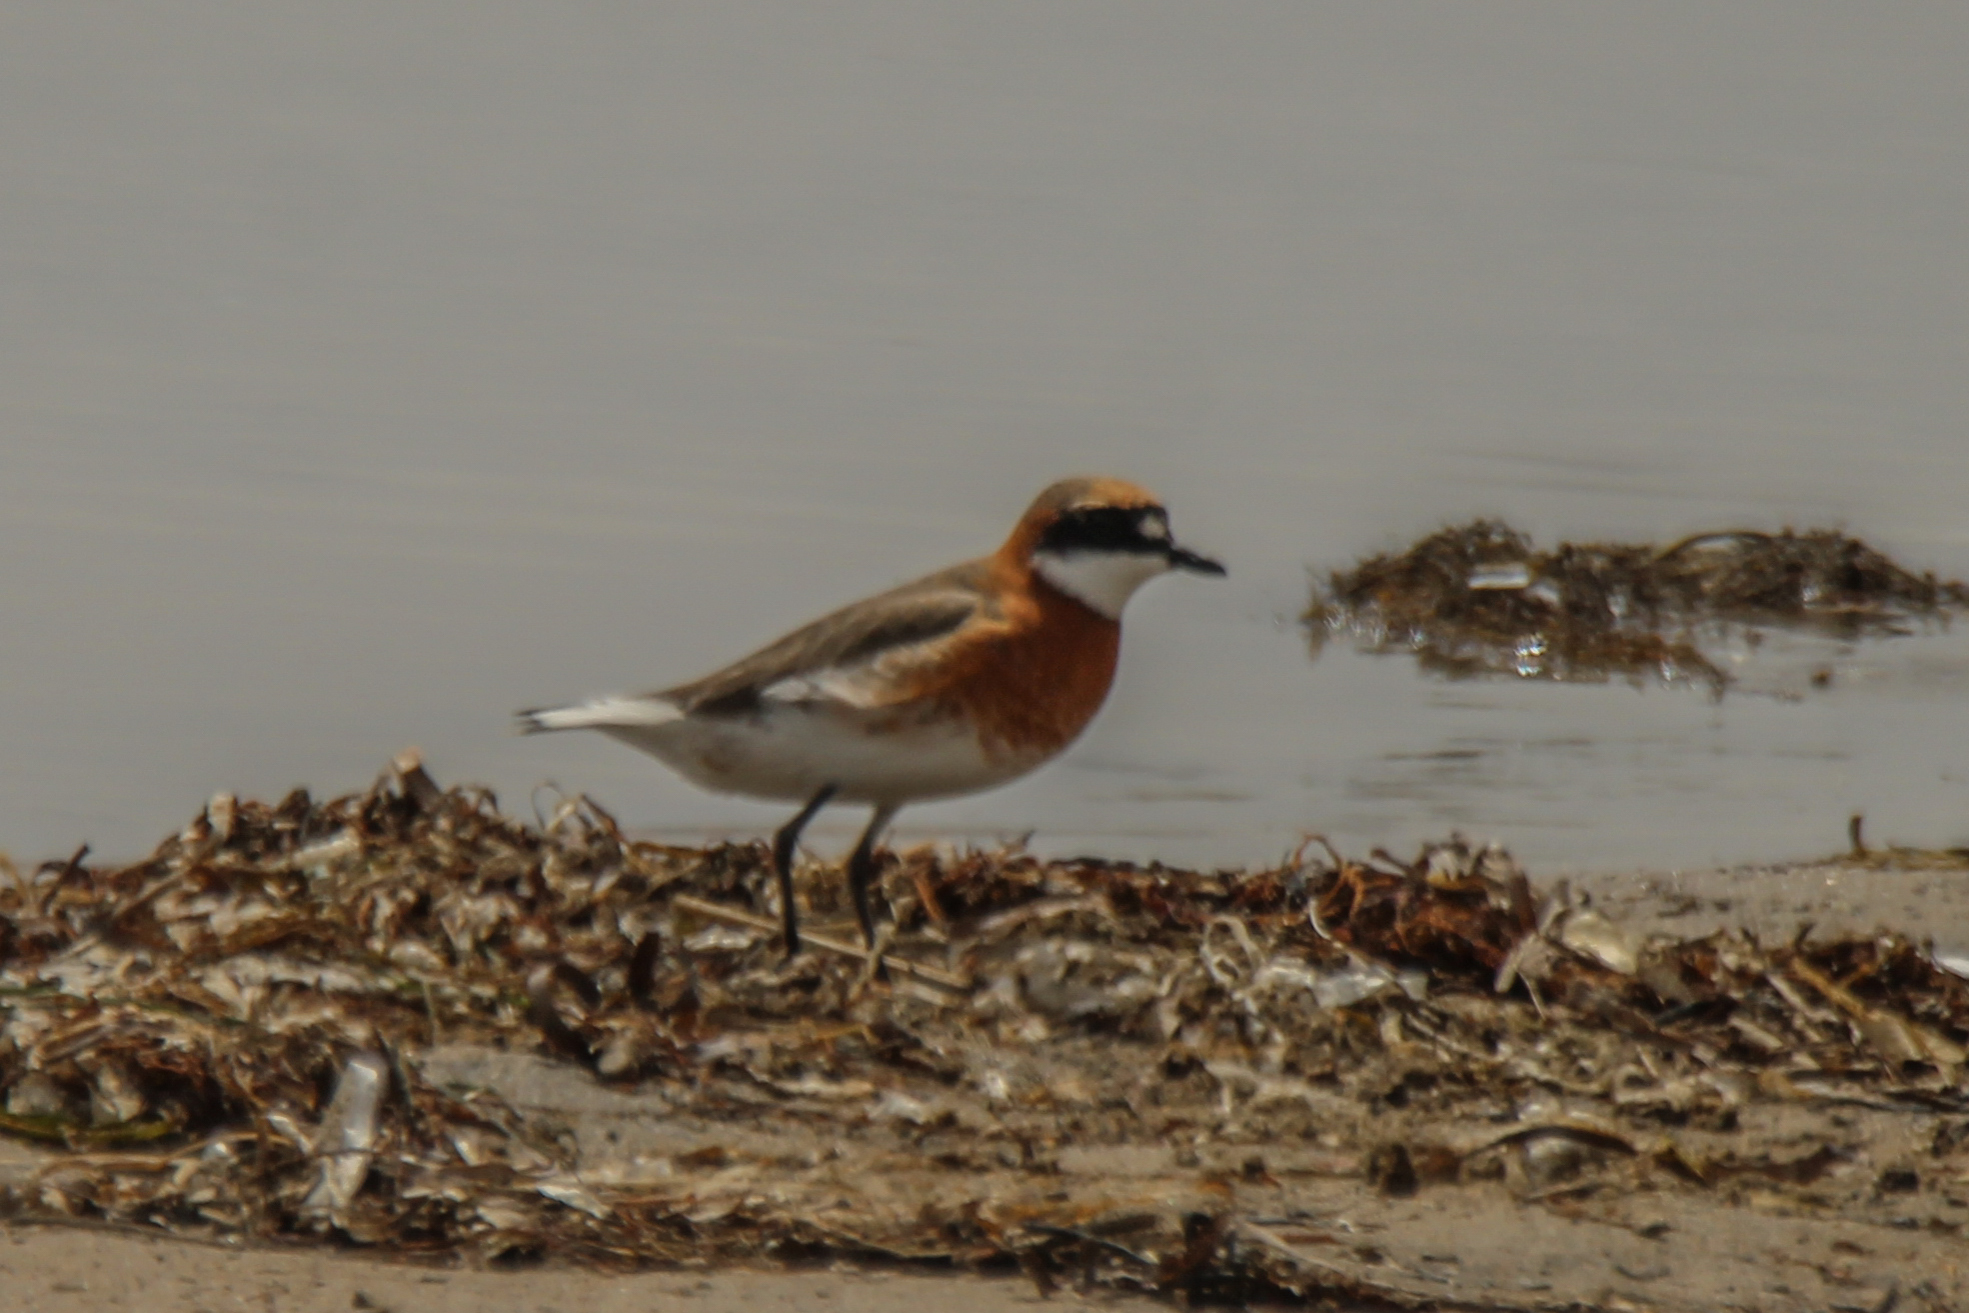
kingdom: Animalia
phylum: Chordata
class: Aves
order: Charadriiformes
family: Charadriidae
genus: Anarhynchus
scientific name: Anarhynchus
